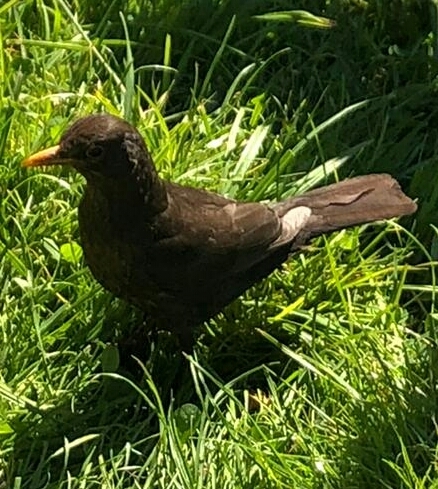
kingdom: Animalia
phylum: Chordata
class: Aves
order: Passeriformes
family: Turdidae
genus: Turdus
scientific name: Turdus merula
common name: Common blackbird
